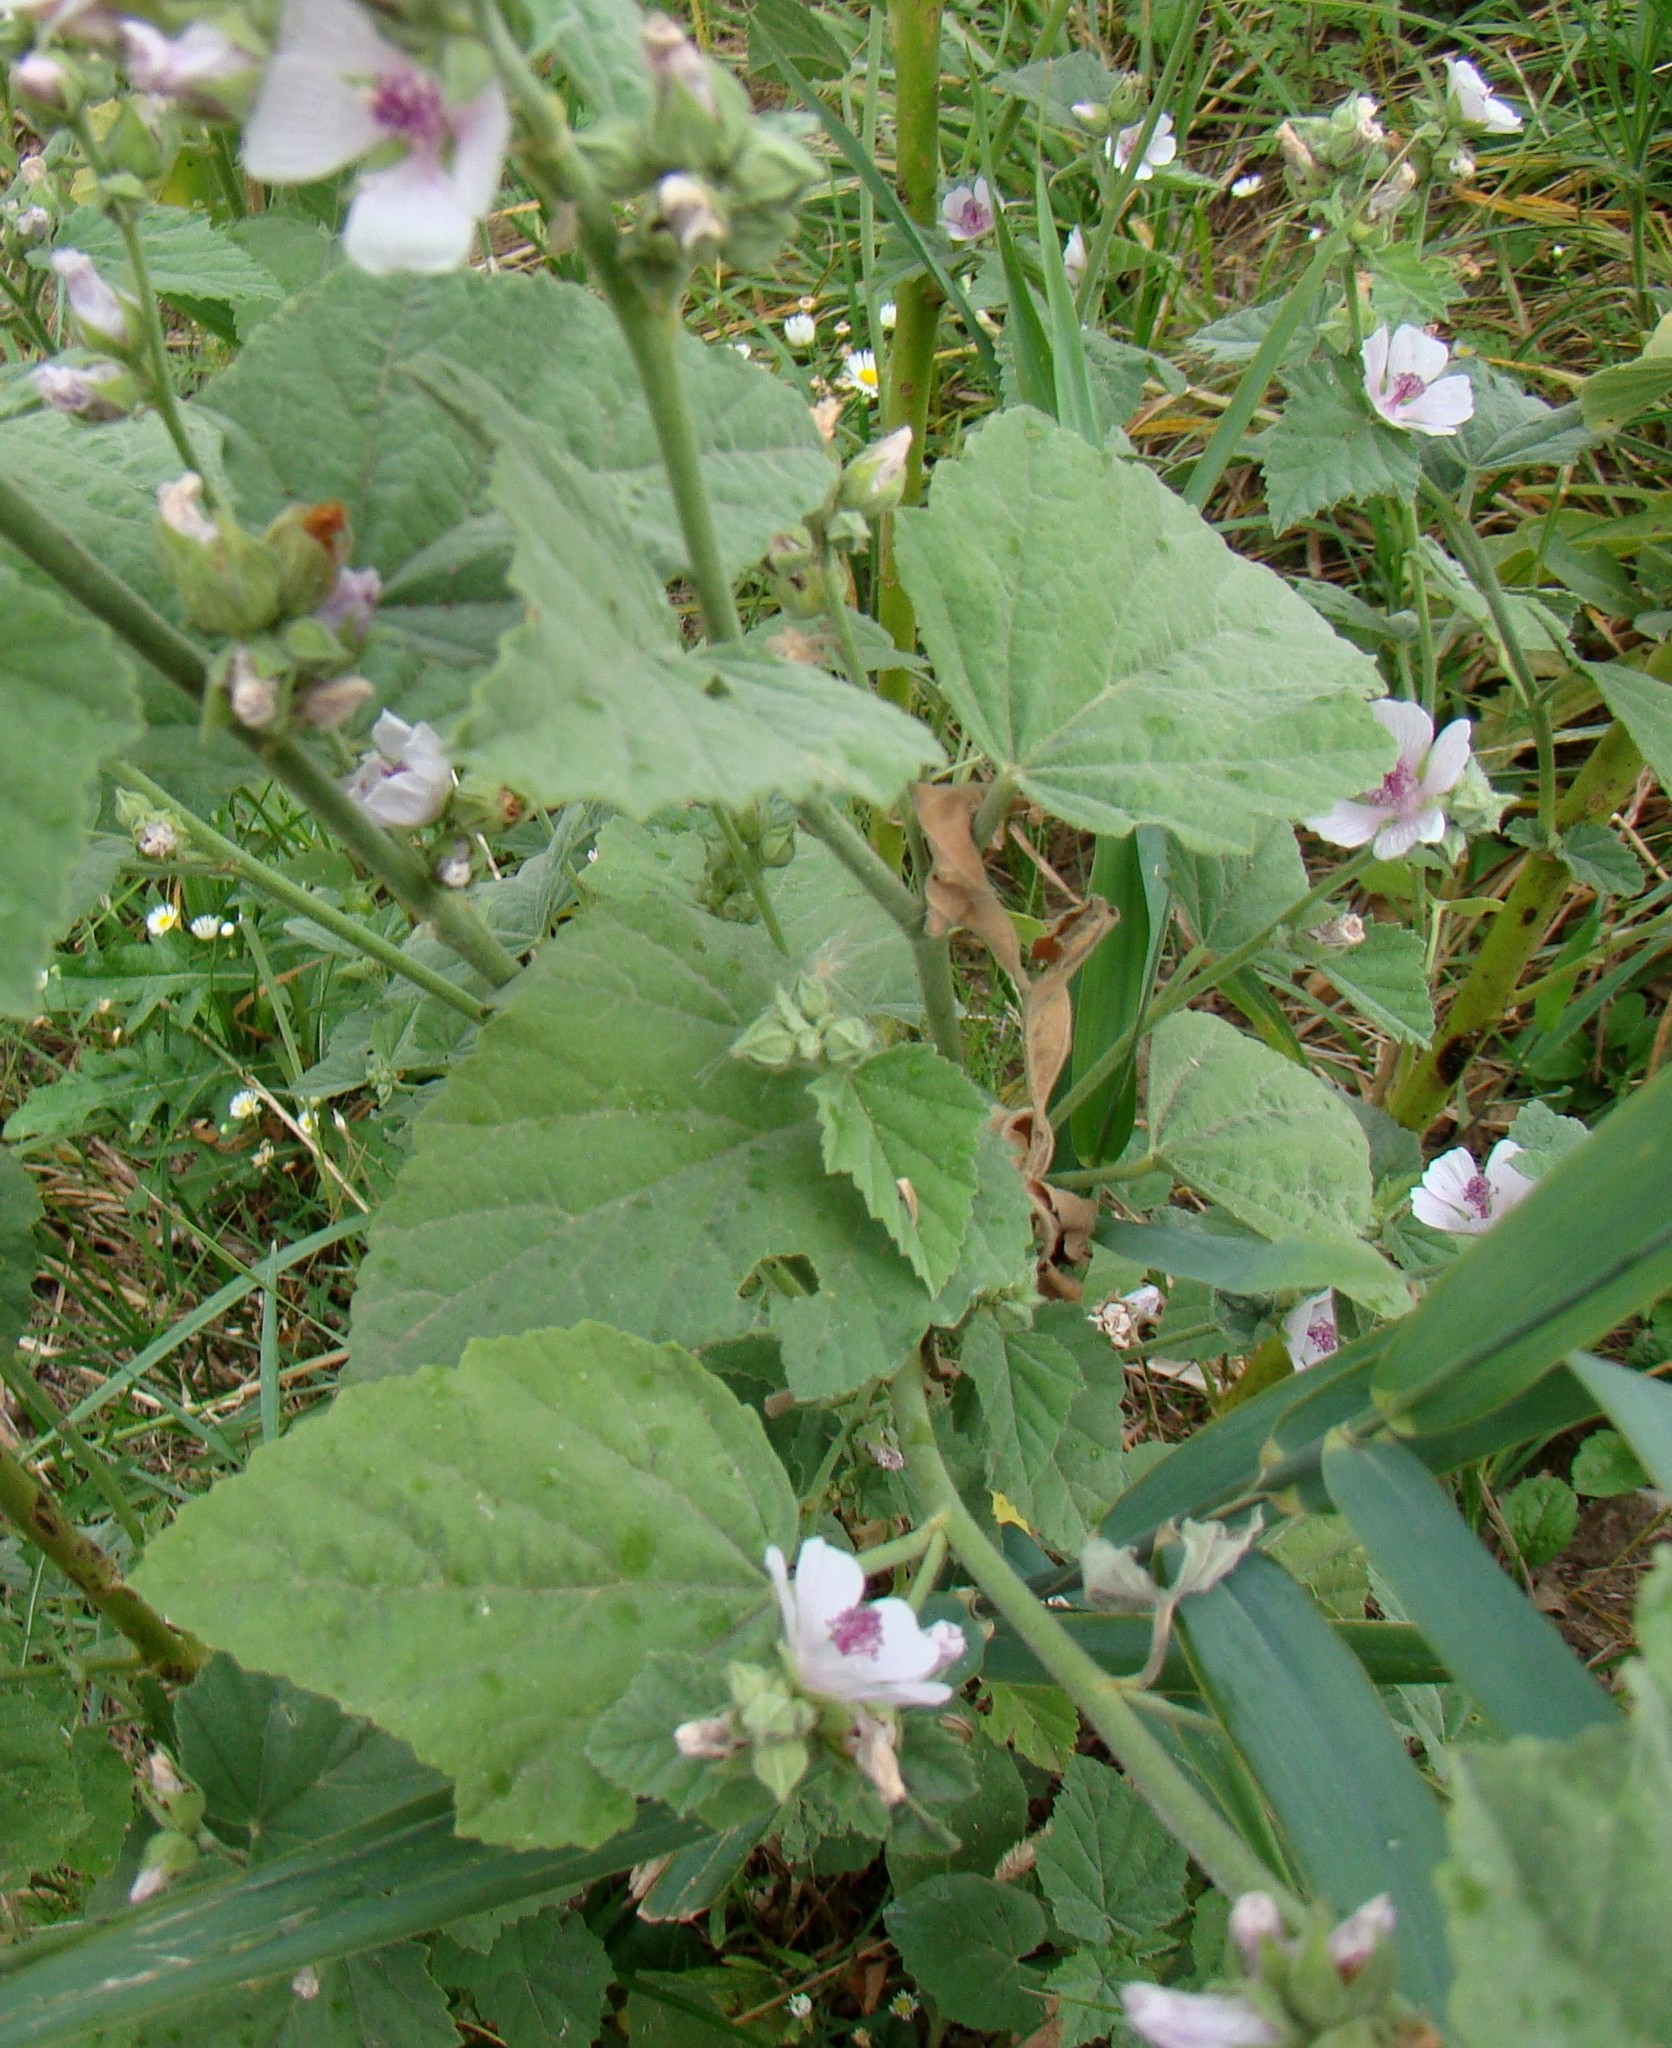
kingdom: Plantae
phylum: Tracheophyta
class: Magnoliopsida
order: Malvales
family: Malvaceae
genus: Althaea
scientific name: Althaea officinalis
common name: Marsh-mallow
